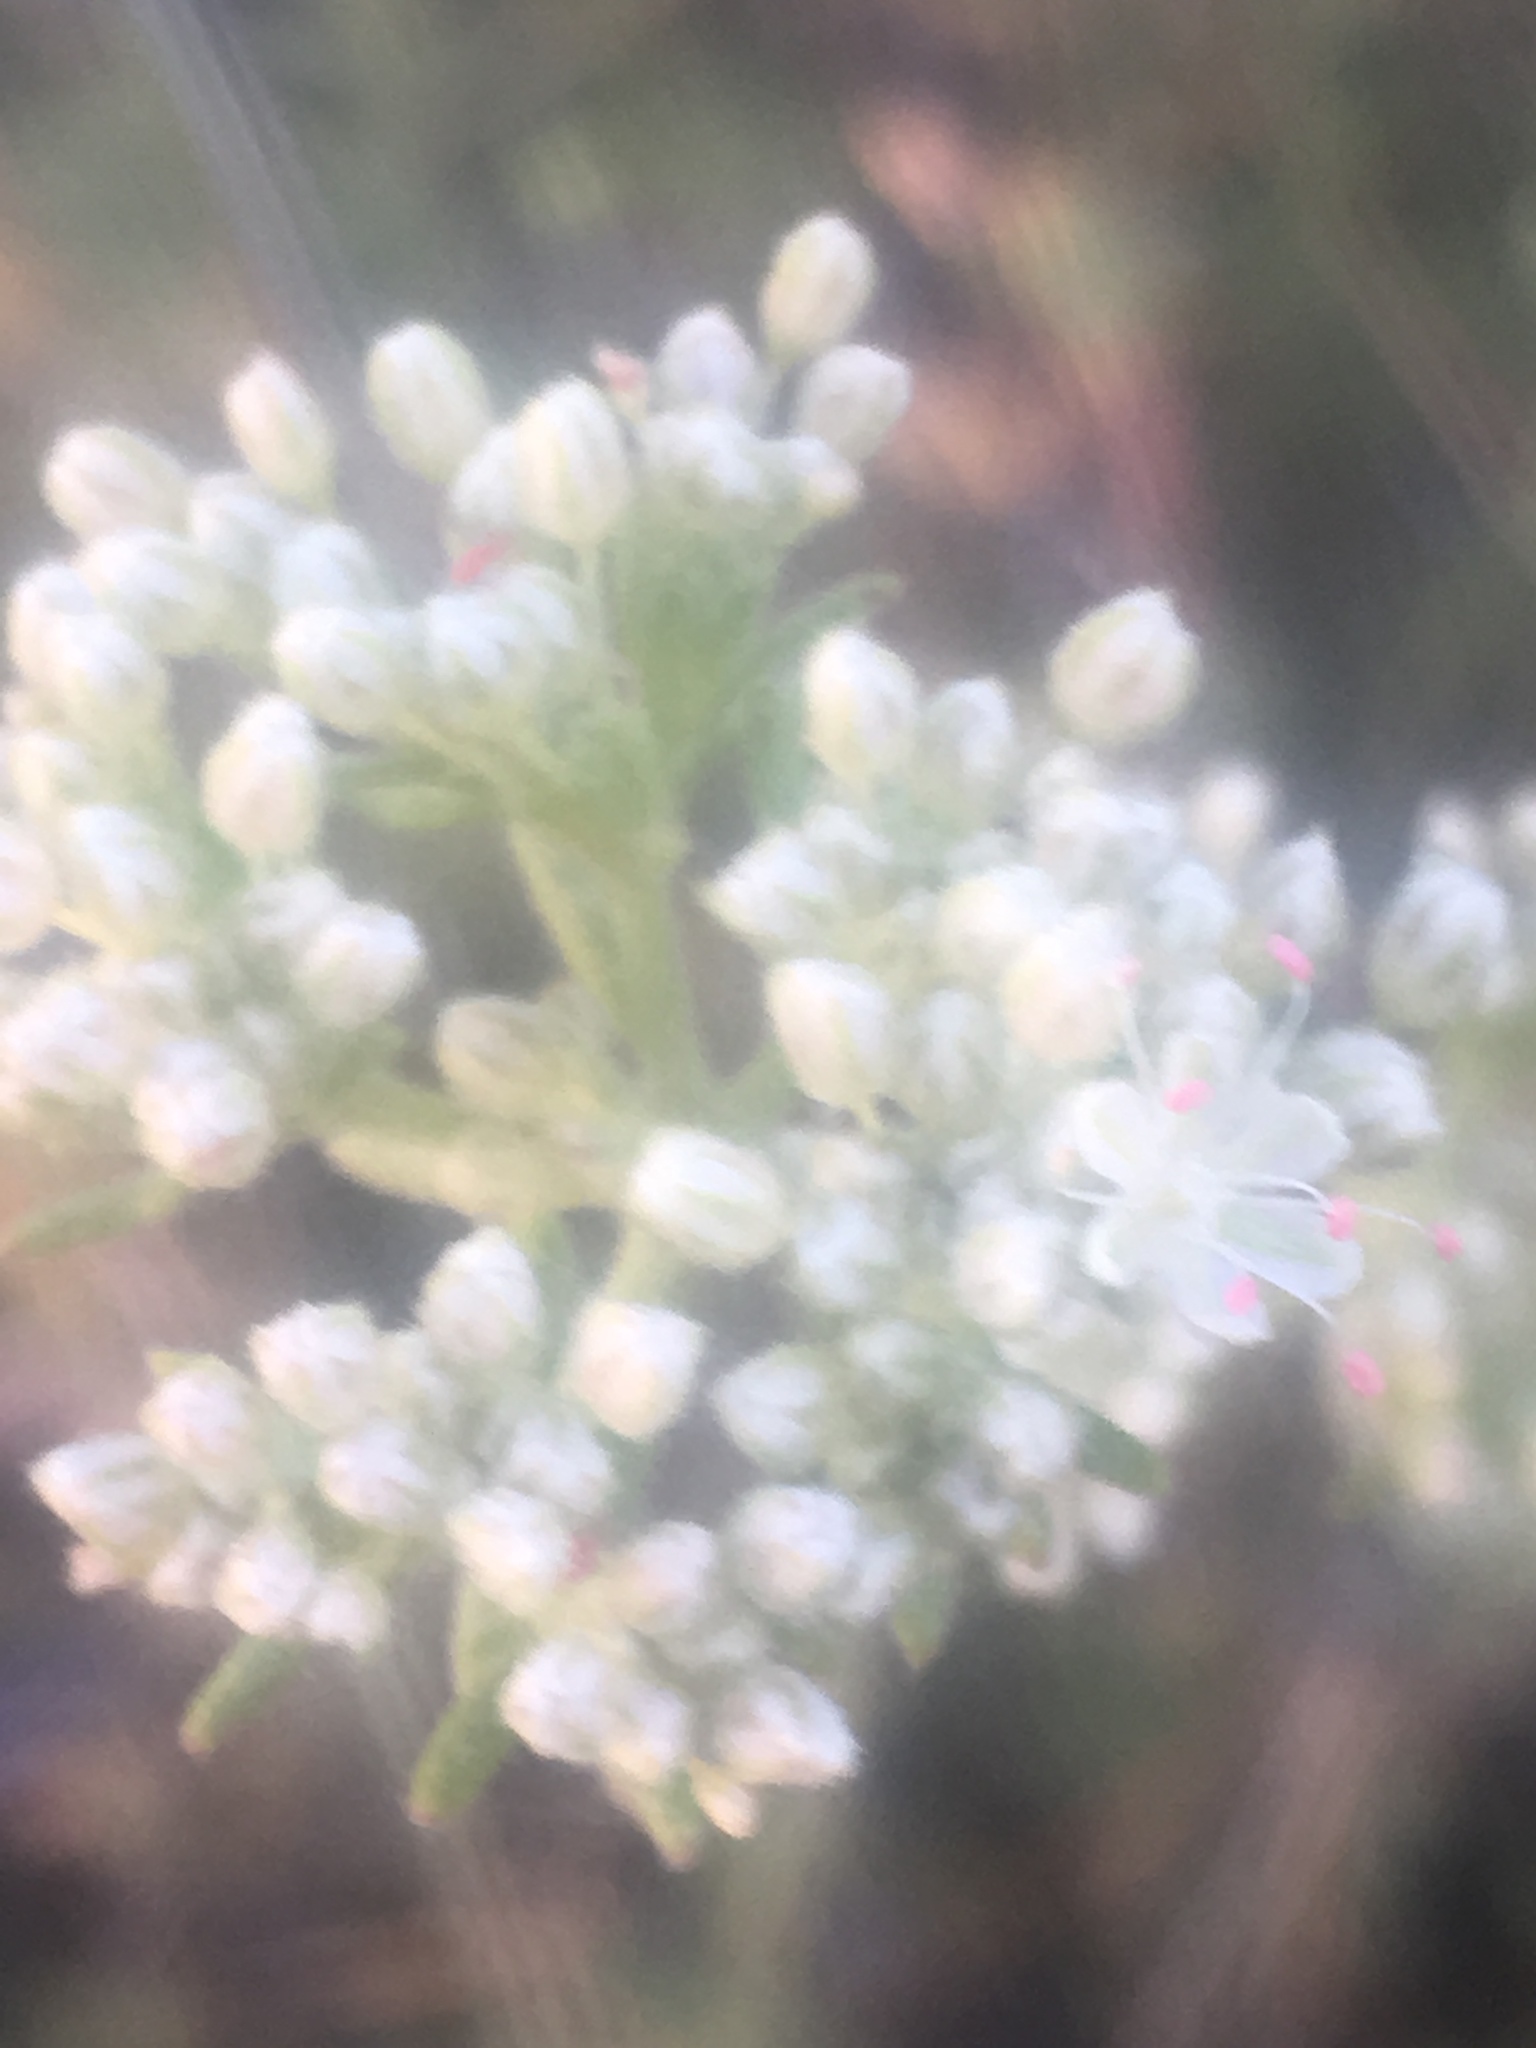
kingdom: Plantae
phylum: Tracheophyta
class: Magnoliopsida
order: Caryophyllales
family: Polygonaceae
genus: Eriogonum
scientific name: Eriogonum fasciculatum
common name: California wild buckwheat
